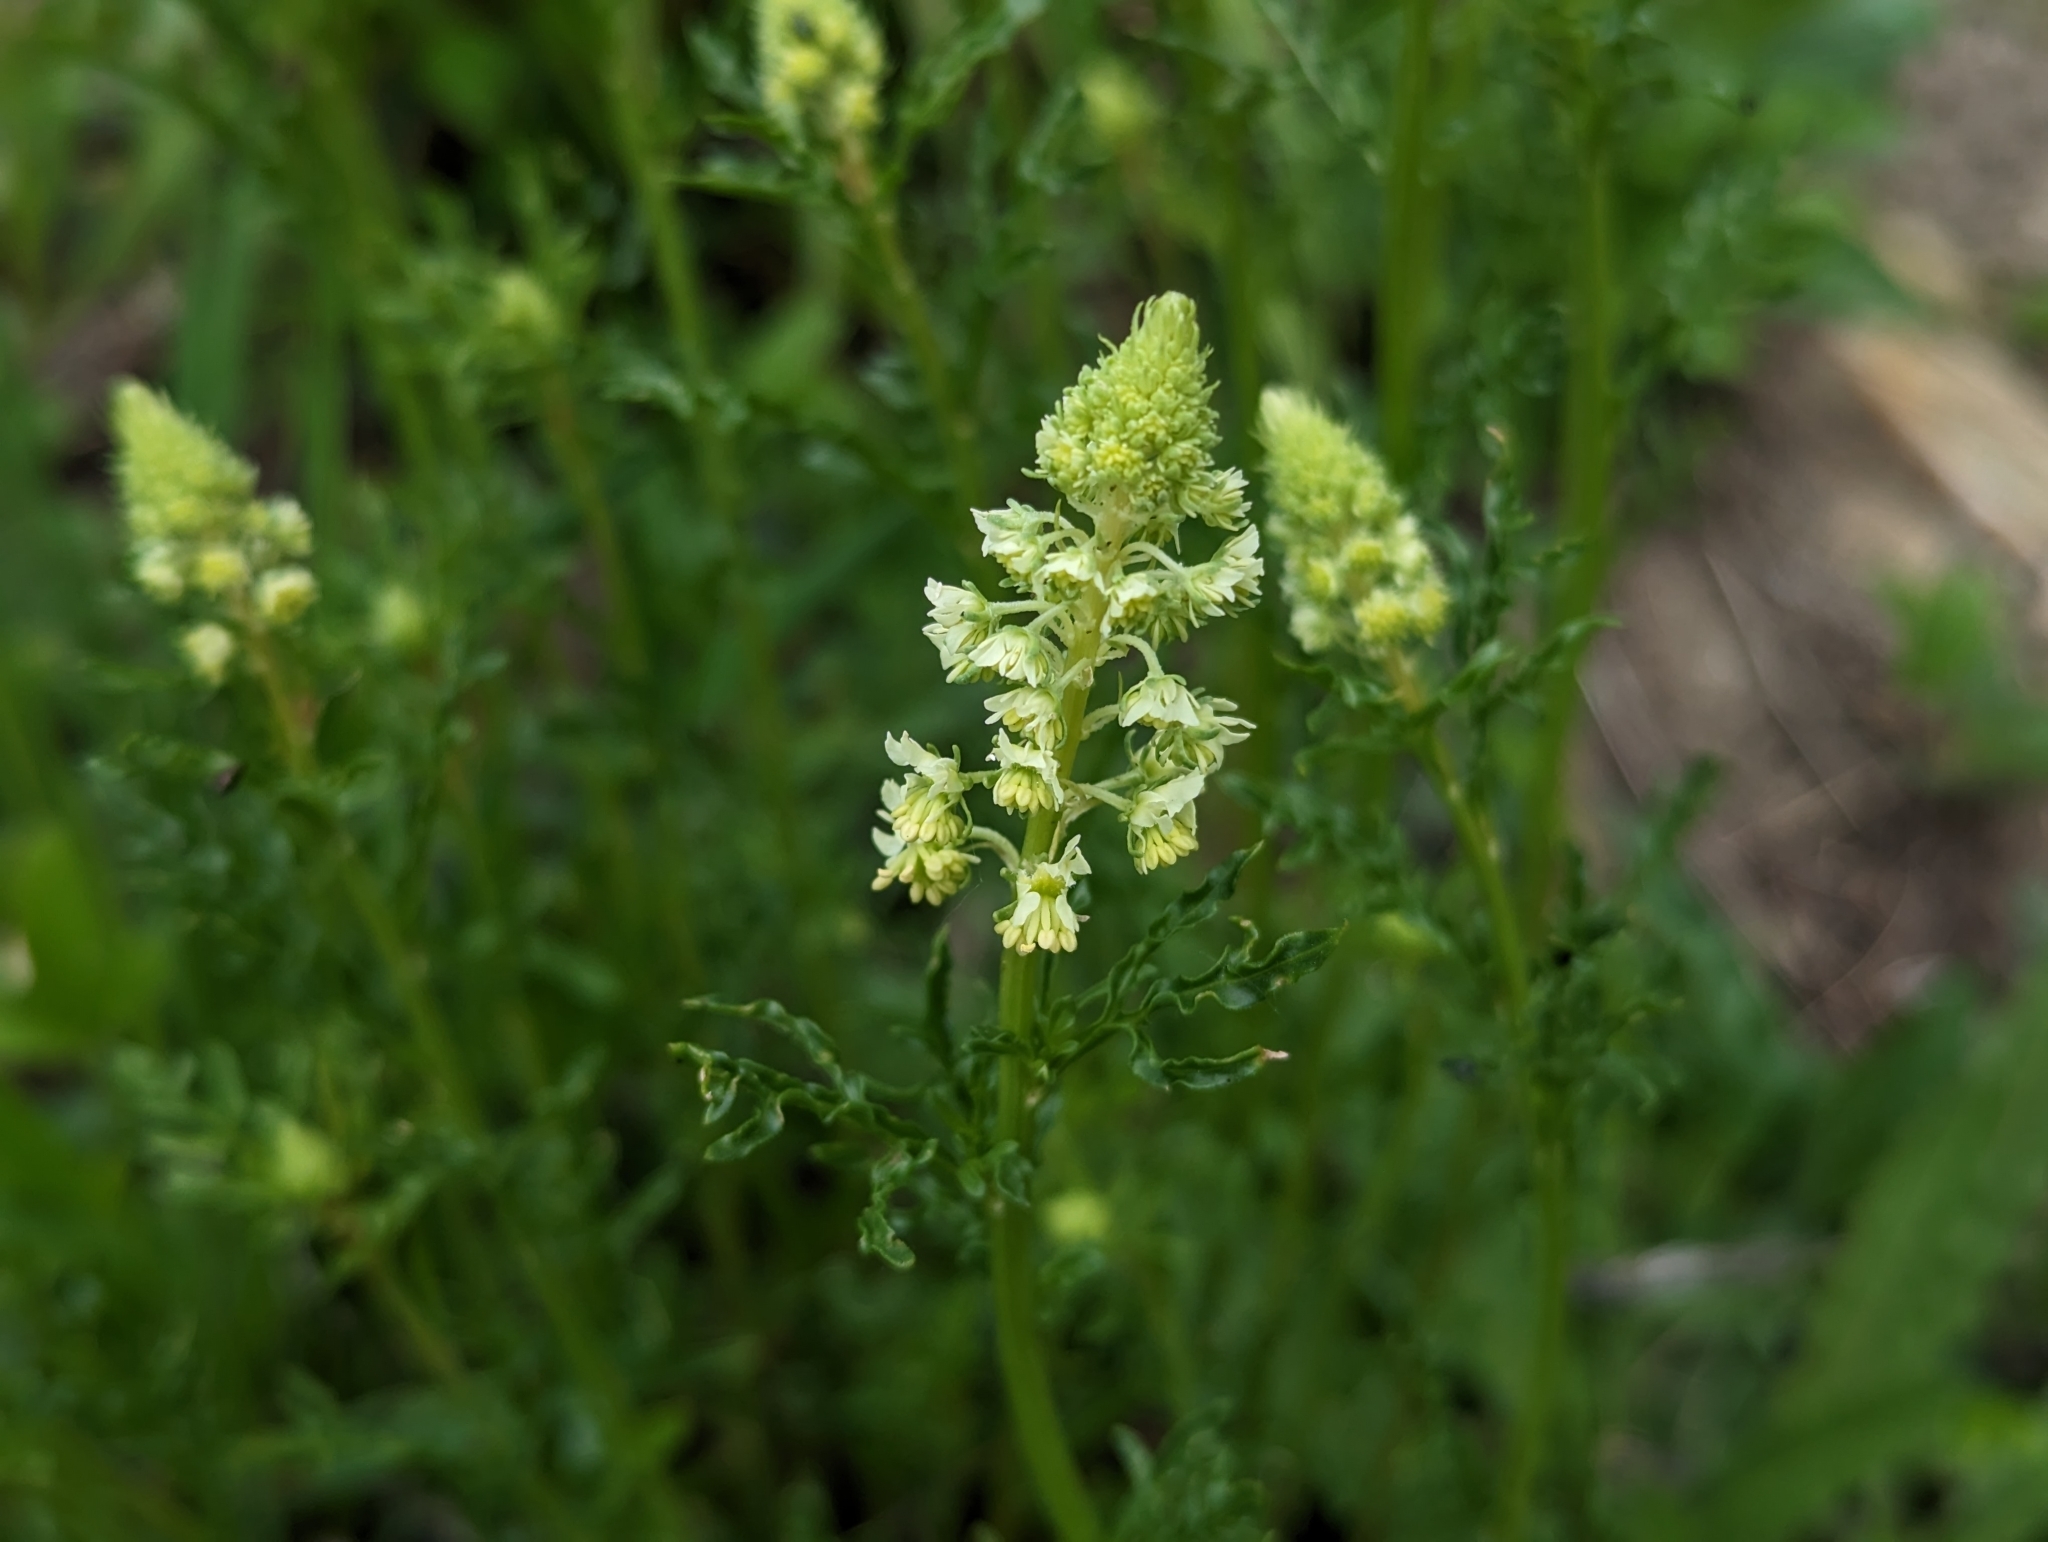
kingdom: Plantae
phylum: Tracheophyta
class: Magnoliopsida
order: Brassicales
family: Resedaceae
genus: Reseda
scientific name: Reseda lutea
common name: Wild mignonette
